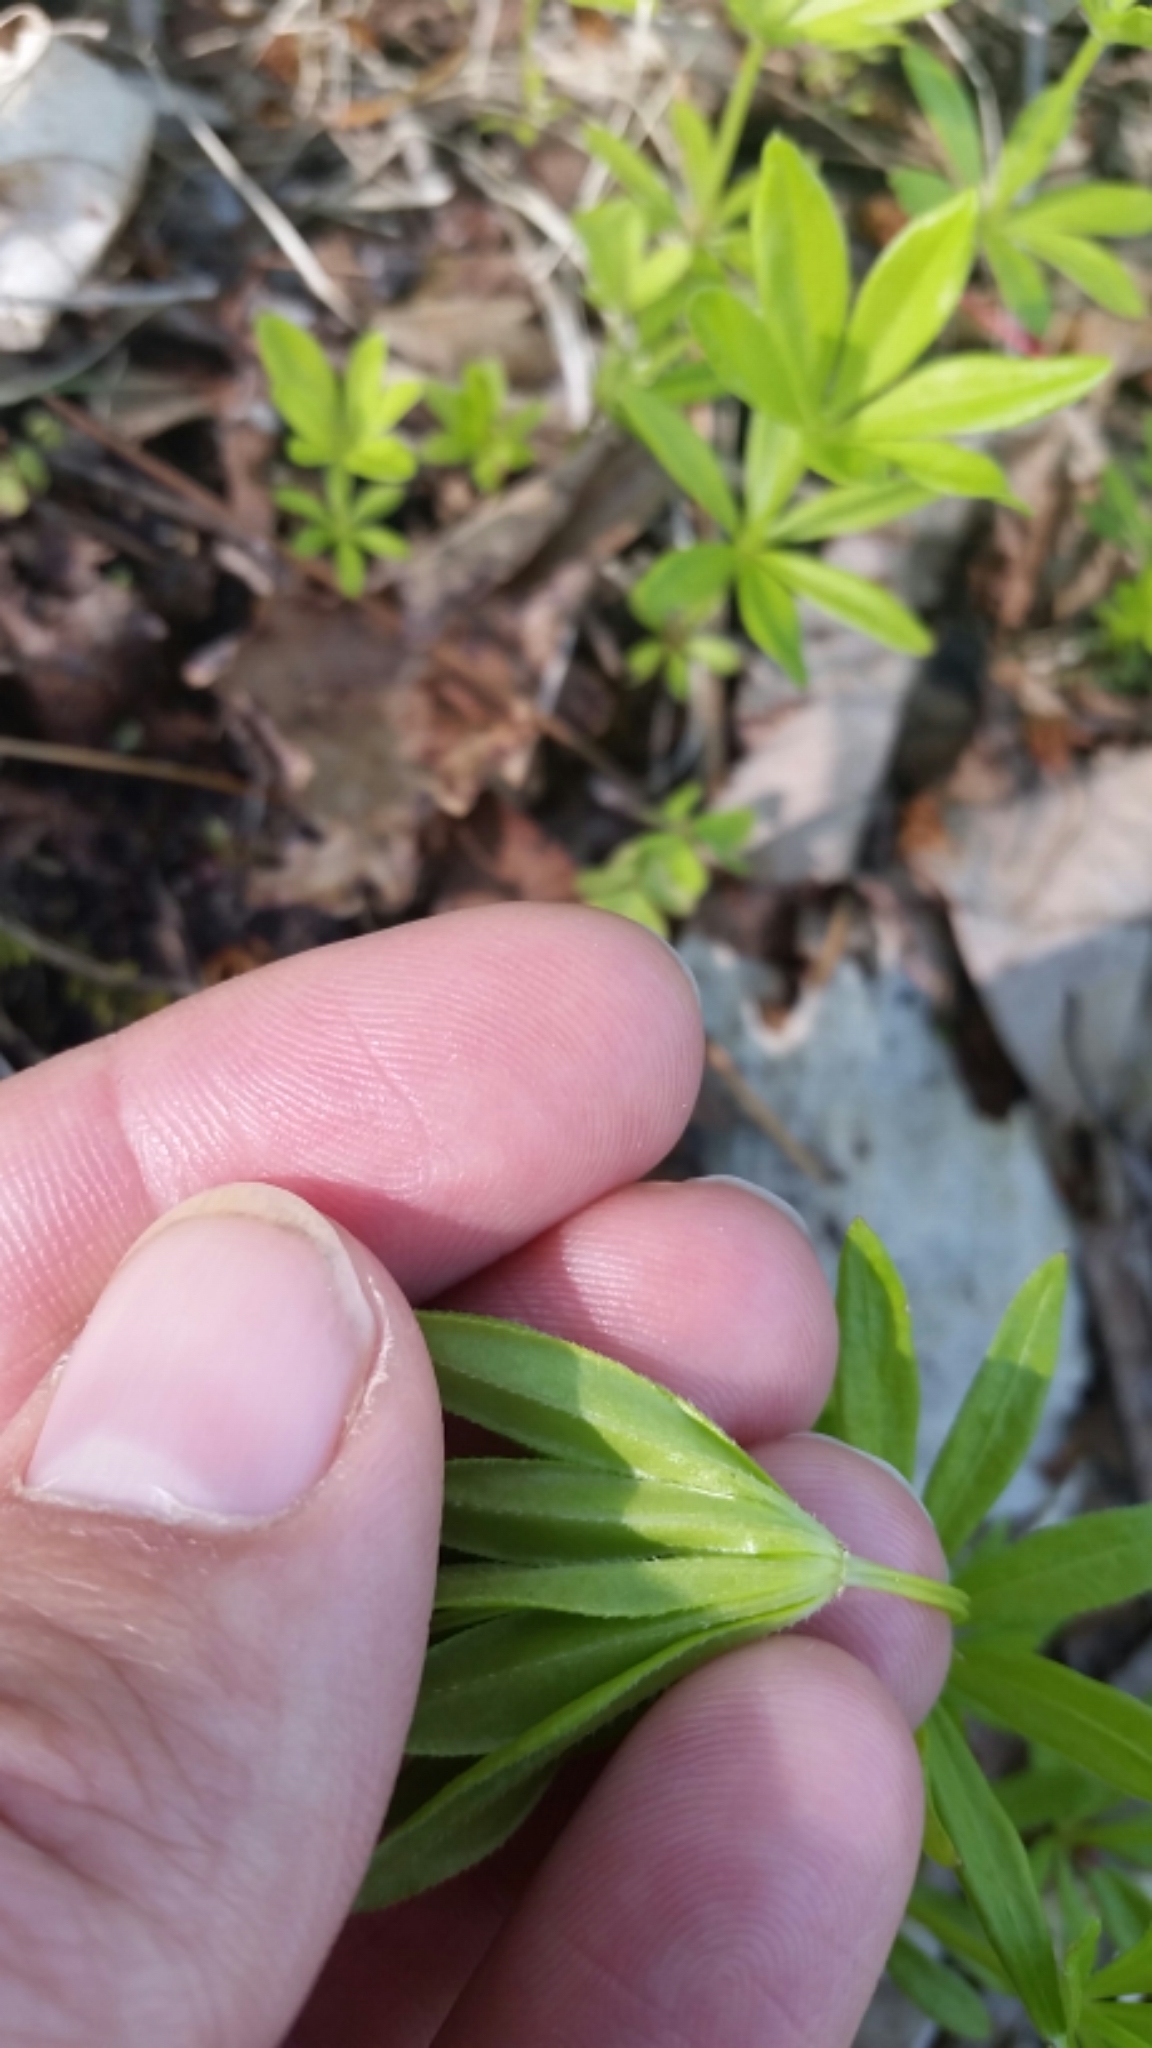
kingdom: Plantae
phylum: Tracheophyta
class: Magnoliopsida
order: Gentianales
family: Rubiaceae
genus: Galium
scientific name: Galium odoratum
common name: Sweet woodruff
